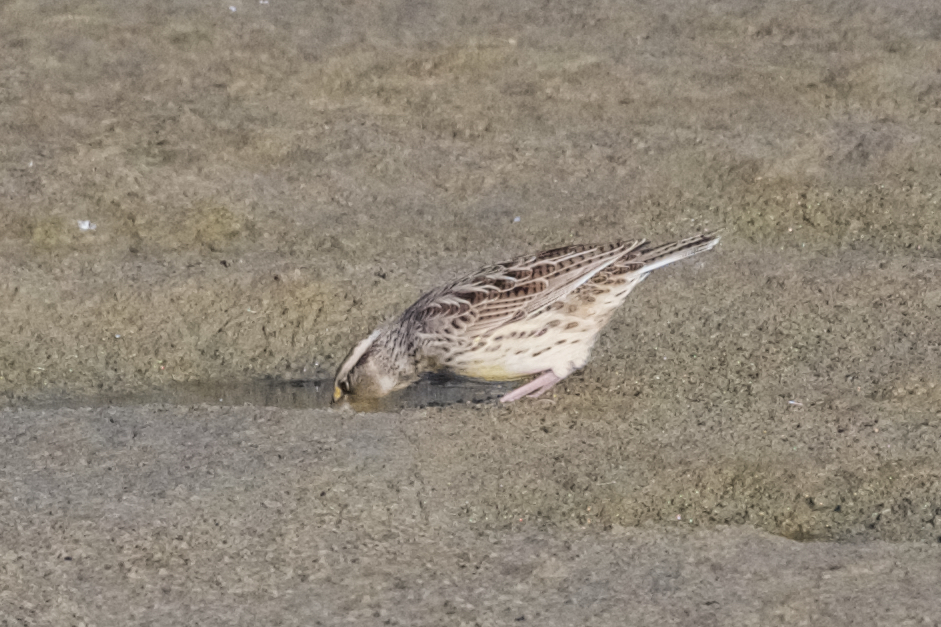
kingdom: Animalia
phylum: Chordata
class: Aves
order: Passeriformes
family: Icteridae
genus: Sturnella
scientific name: Sturnella neglecta
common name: Western meadowlark
